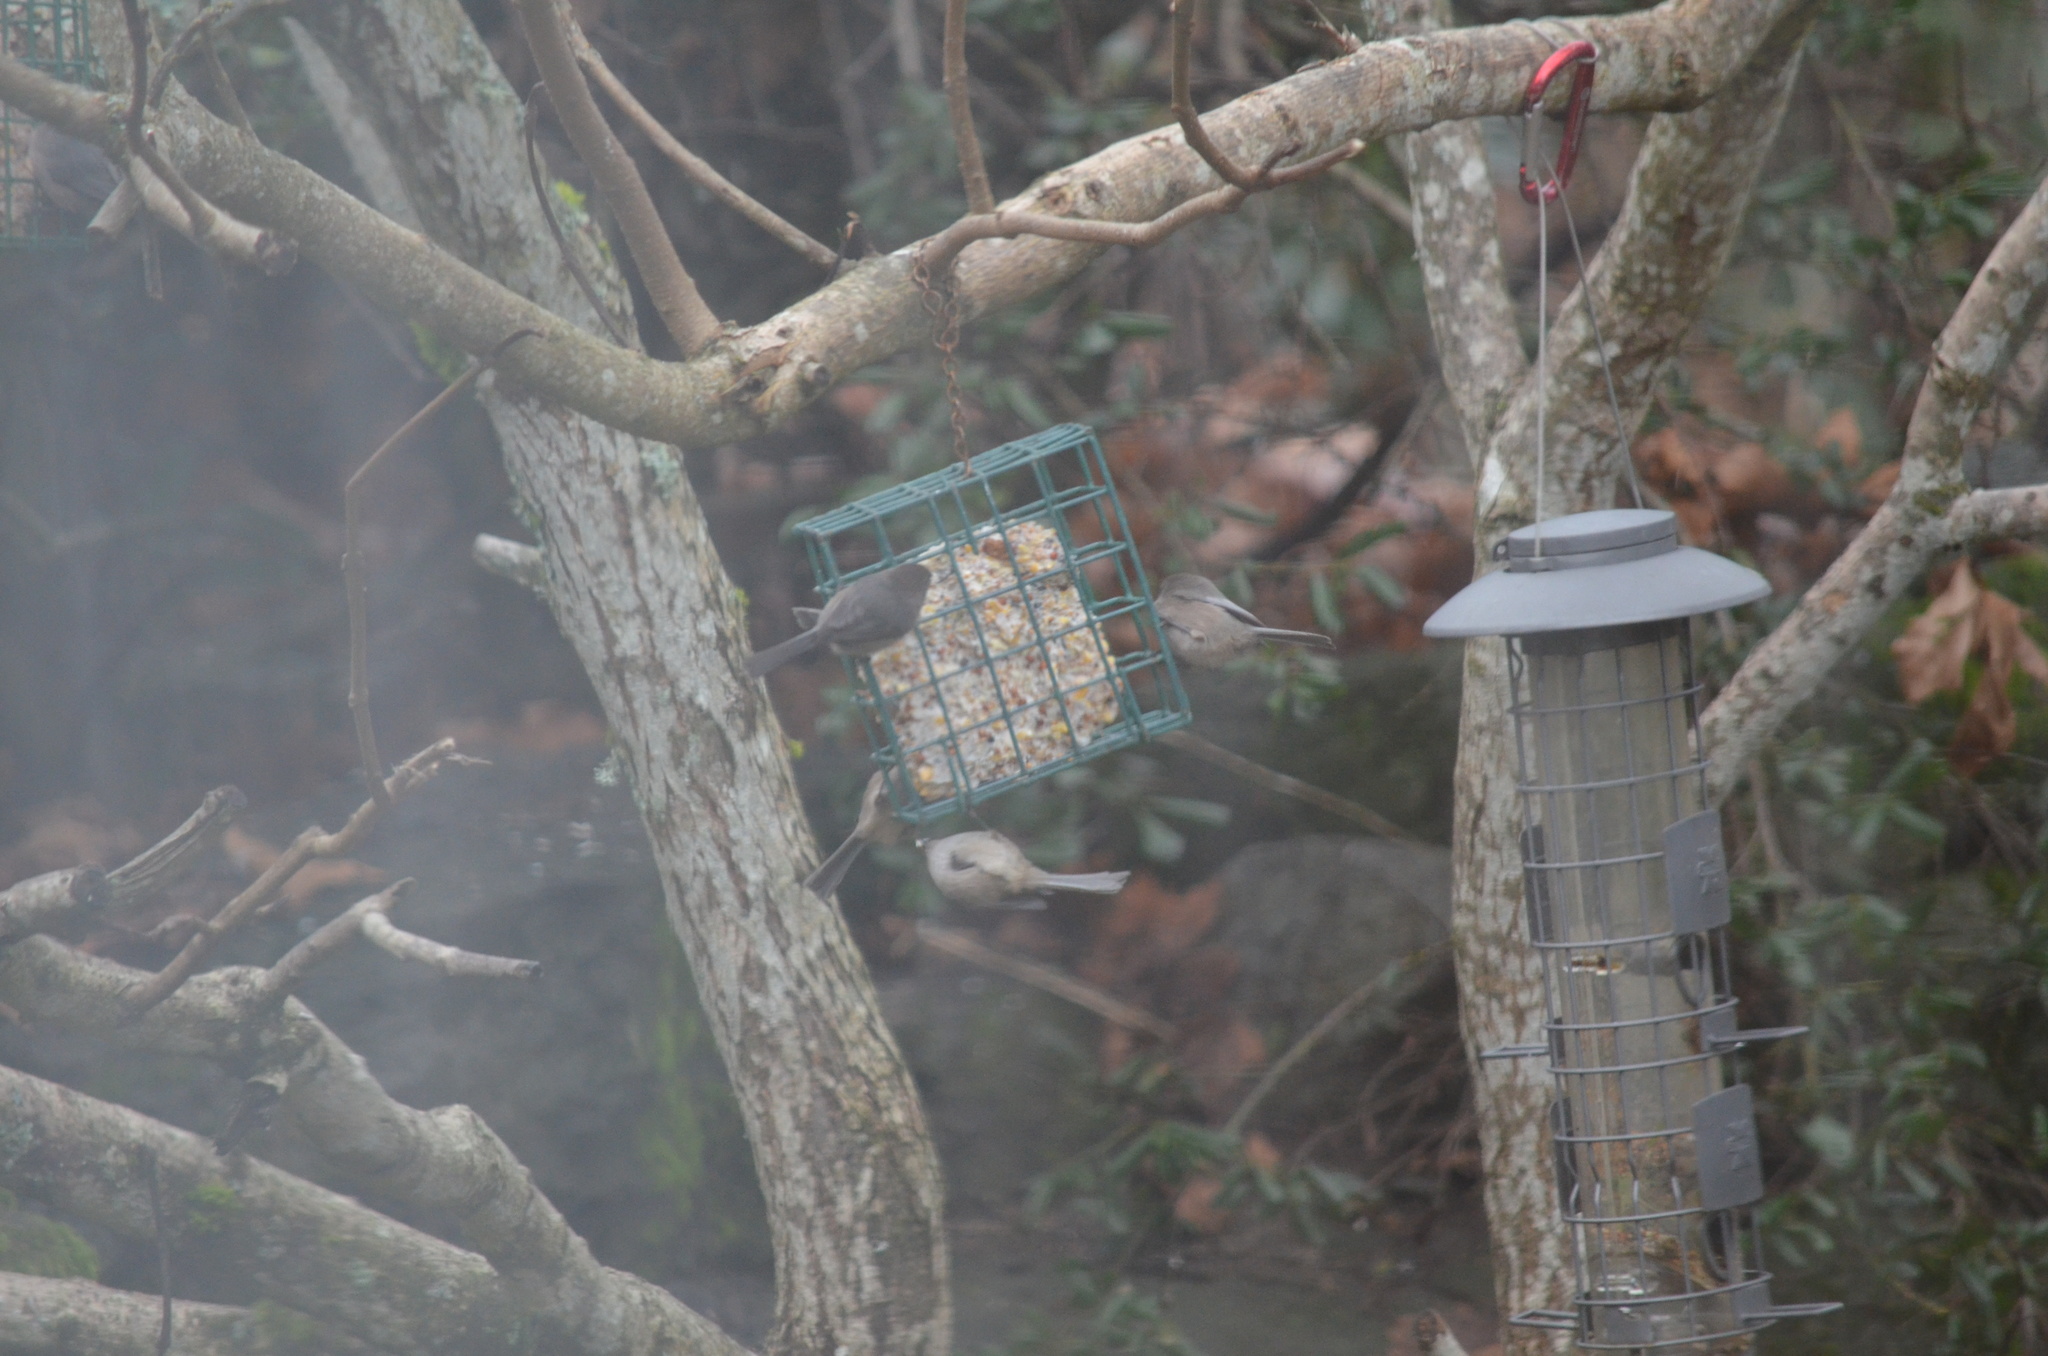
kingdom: Animalia
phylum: Chordata
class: Aves
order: Passeriformes
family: Aegithalidae
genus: Psaltriparus
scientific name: Psaltriparus minimus
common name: American bushtit
